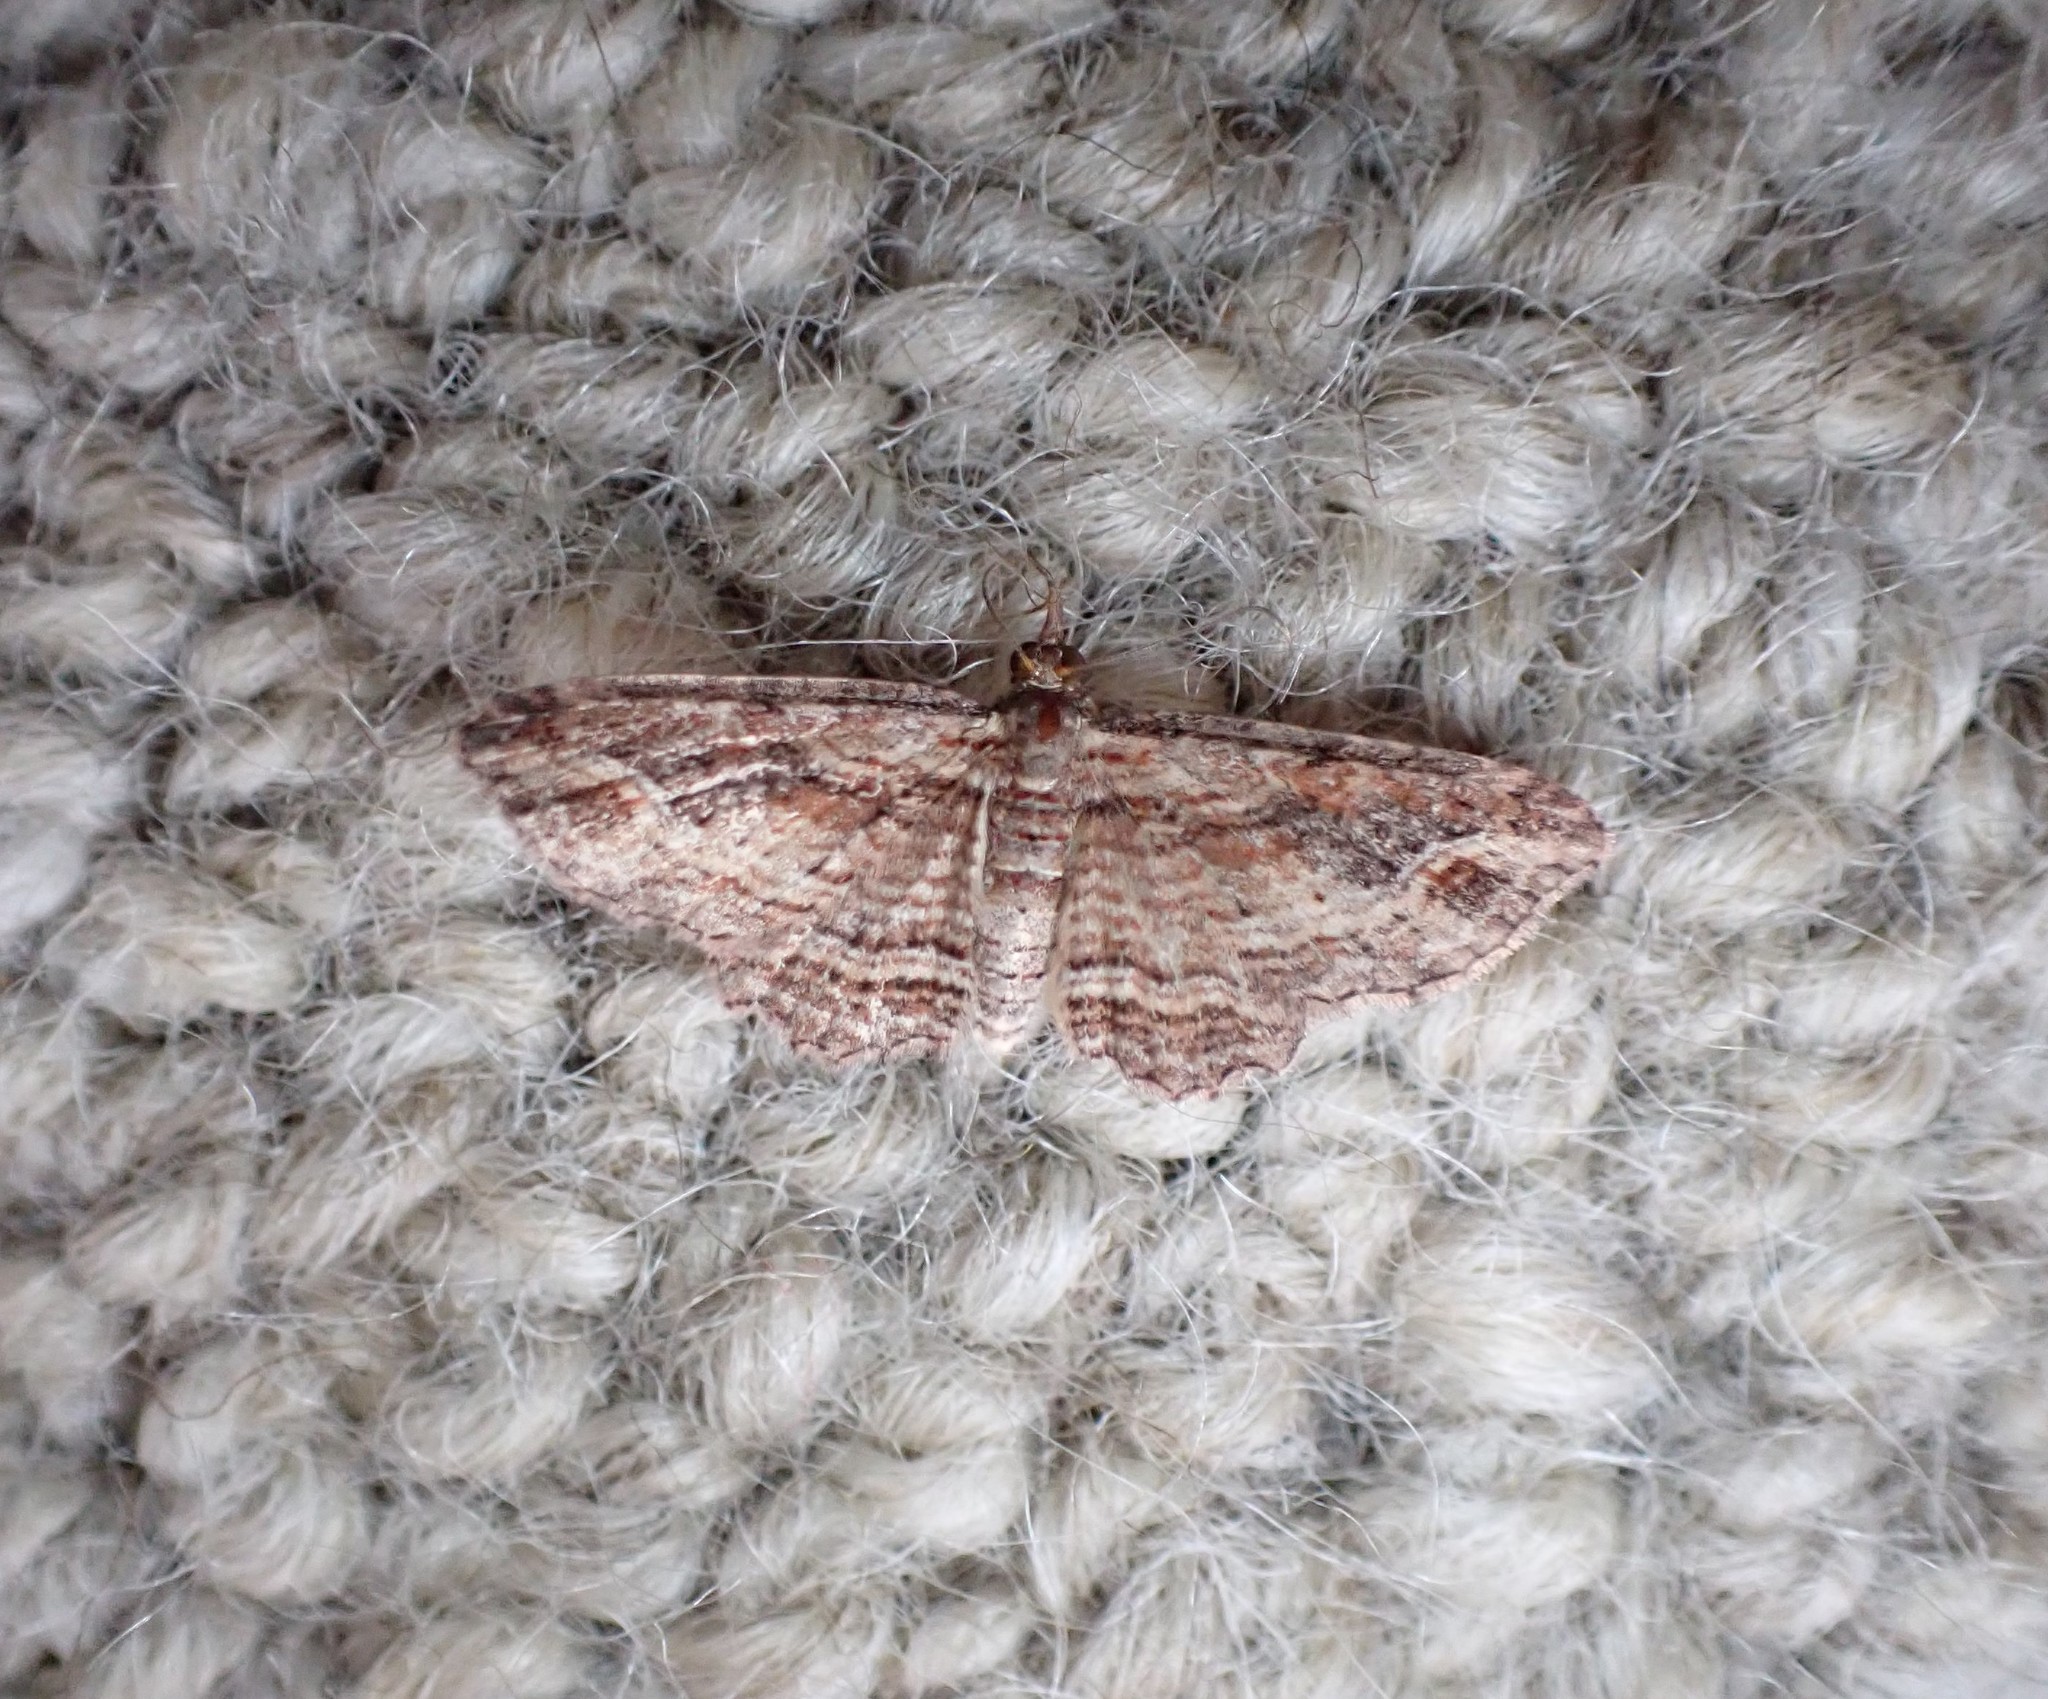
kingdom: Animalia
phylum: Arthropoda
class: Insecta
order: Lepidoptera
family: Geometridae
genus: Chloroclystis
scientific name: Chloroclystis filata
